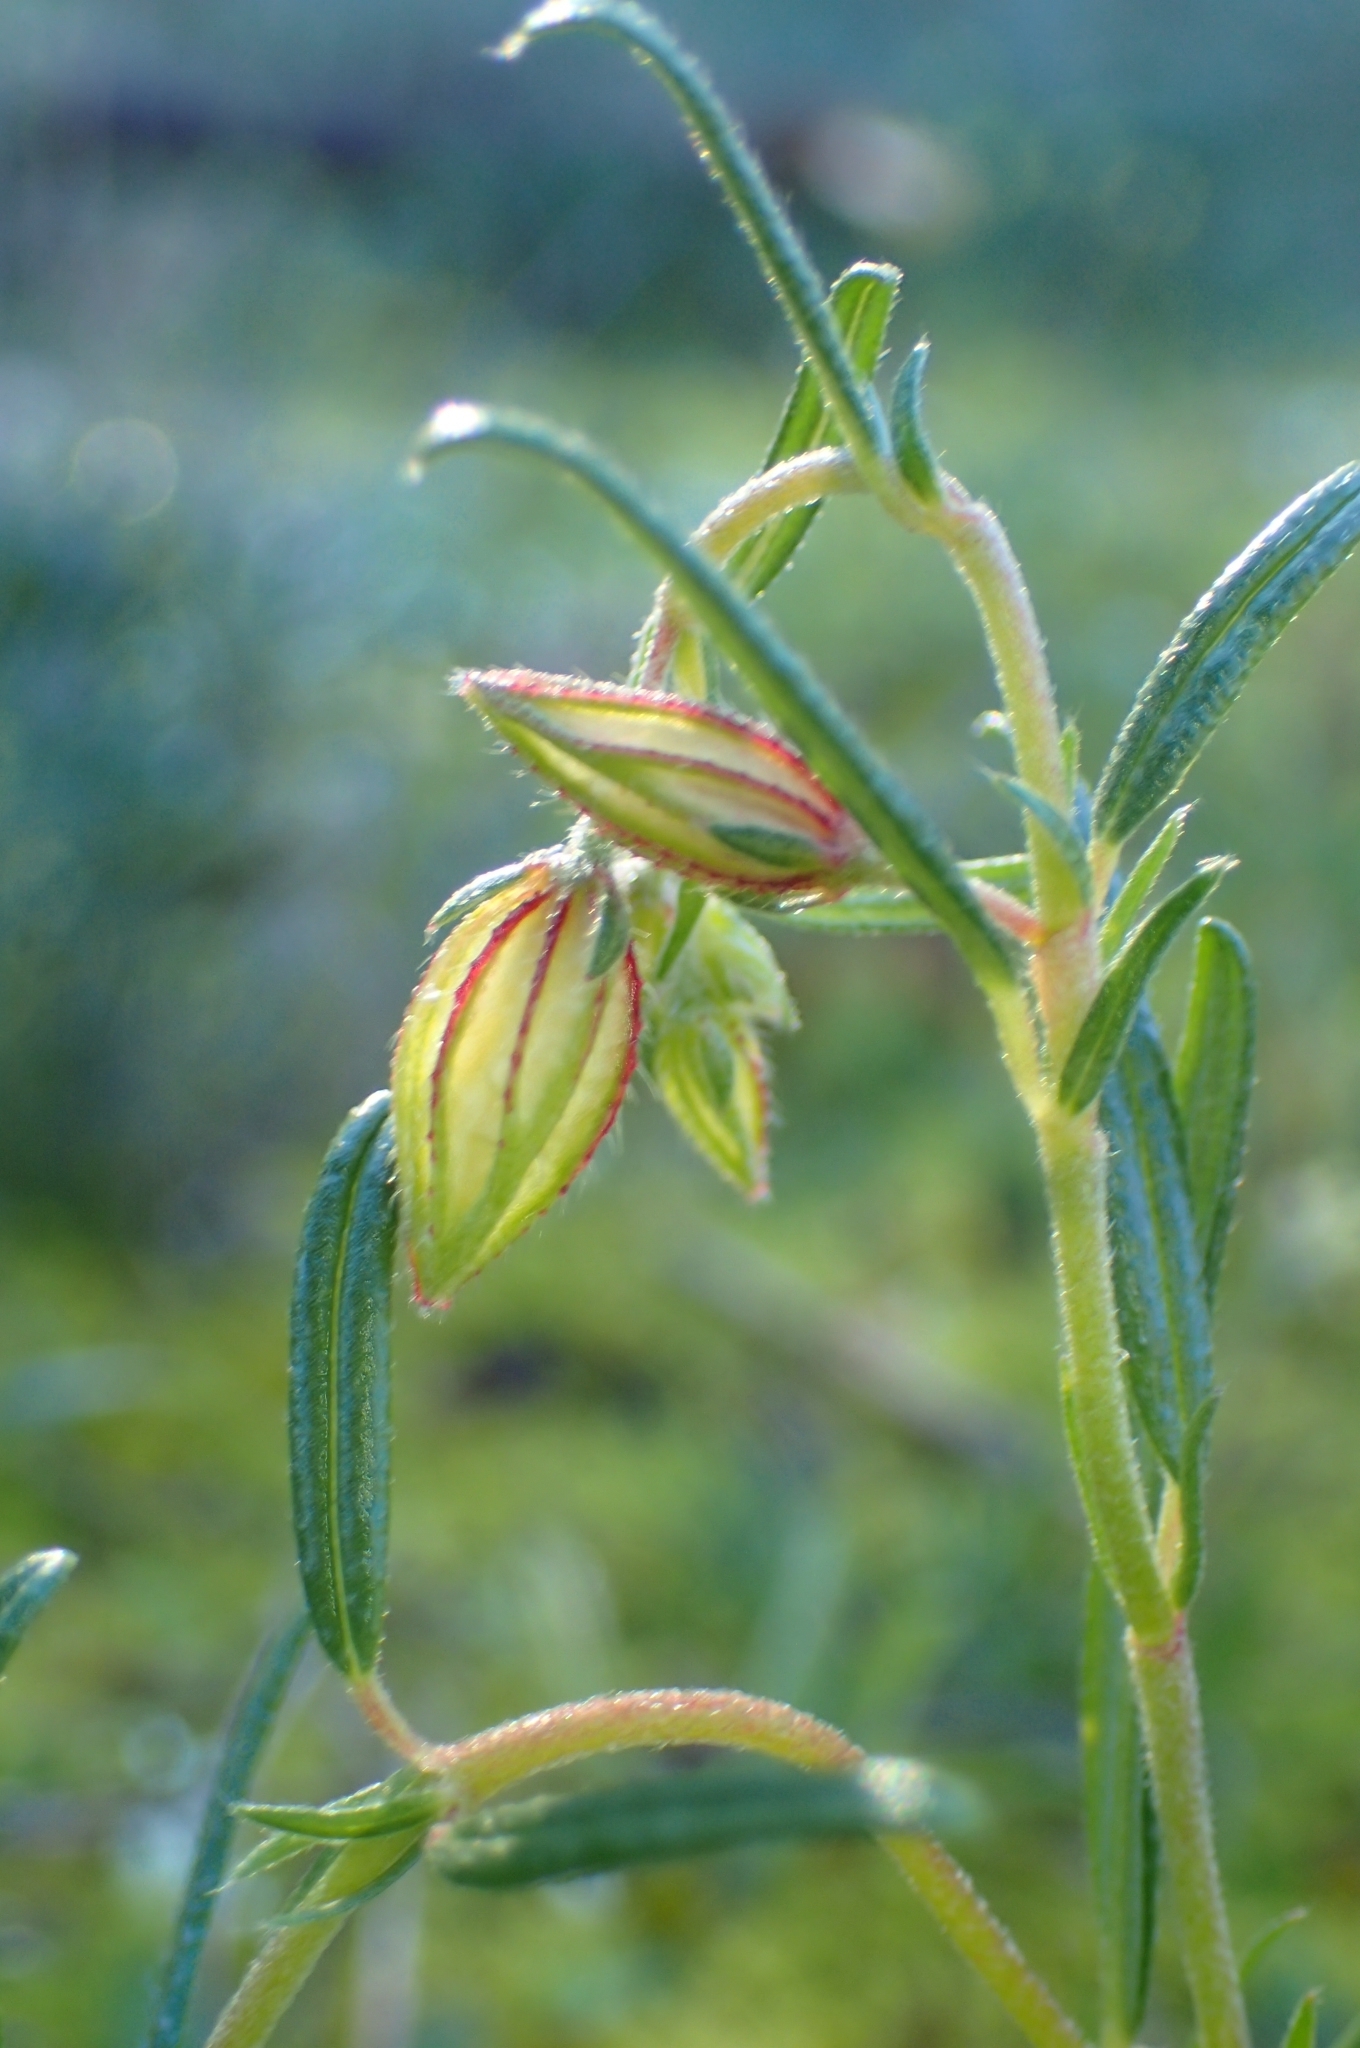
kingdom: Plantae
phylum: Tracheophyta
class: Magnoliopsida
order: Malvales
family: Cistaceae
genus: Helianthemum
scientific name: Helianthemum aegyptiacum
